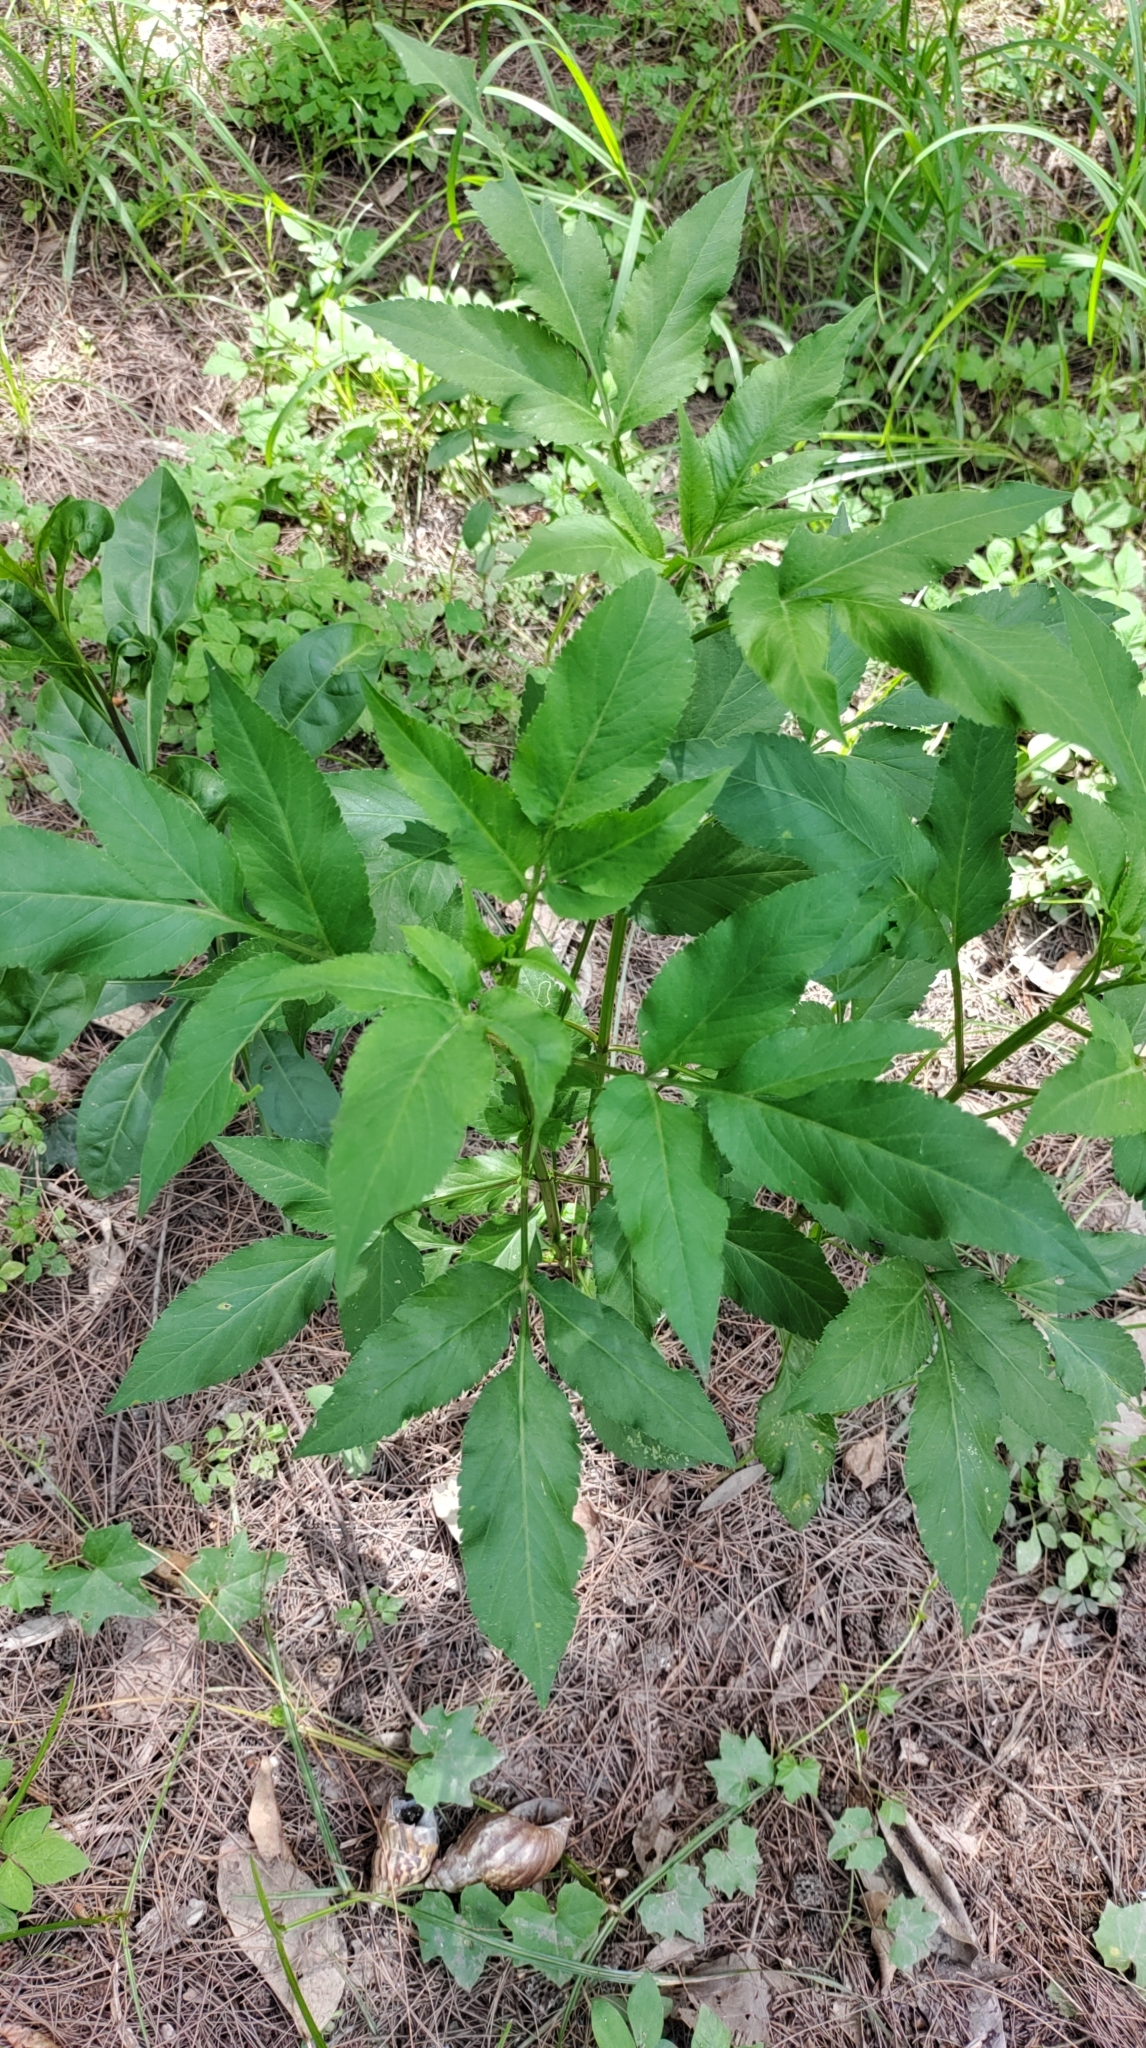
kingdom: Plantae
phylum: Tracheophyta
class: Magnoliopsida
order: Asterales
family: Asteraceae
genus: Bidens
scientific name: Bidens alba
